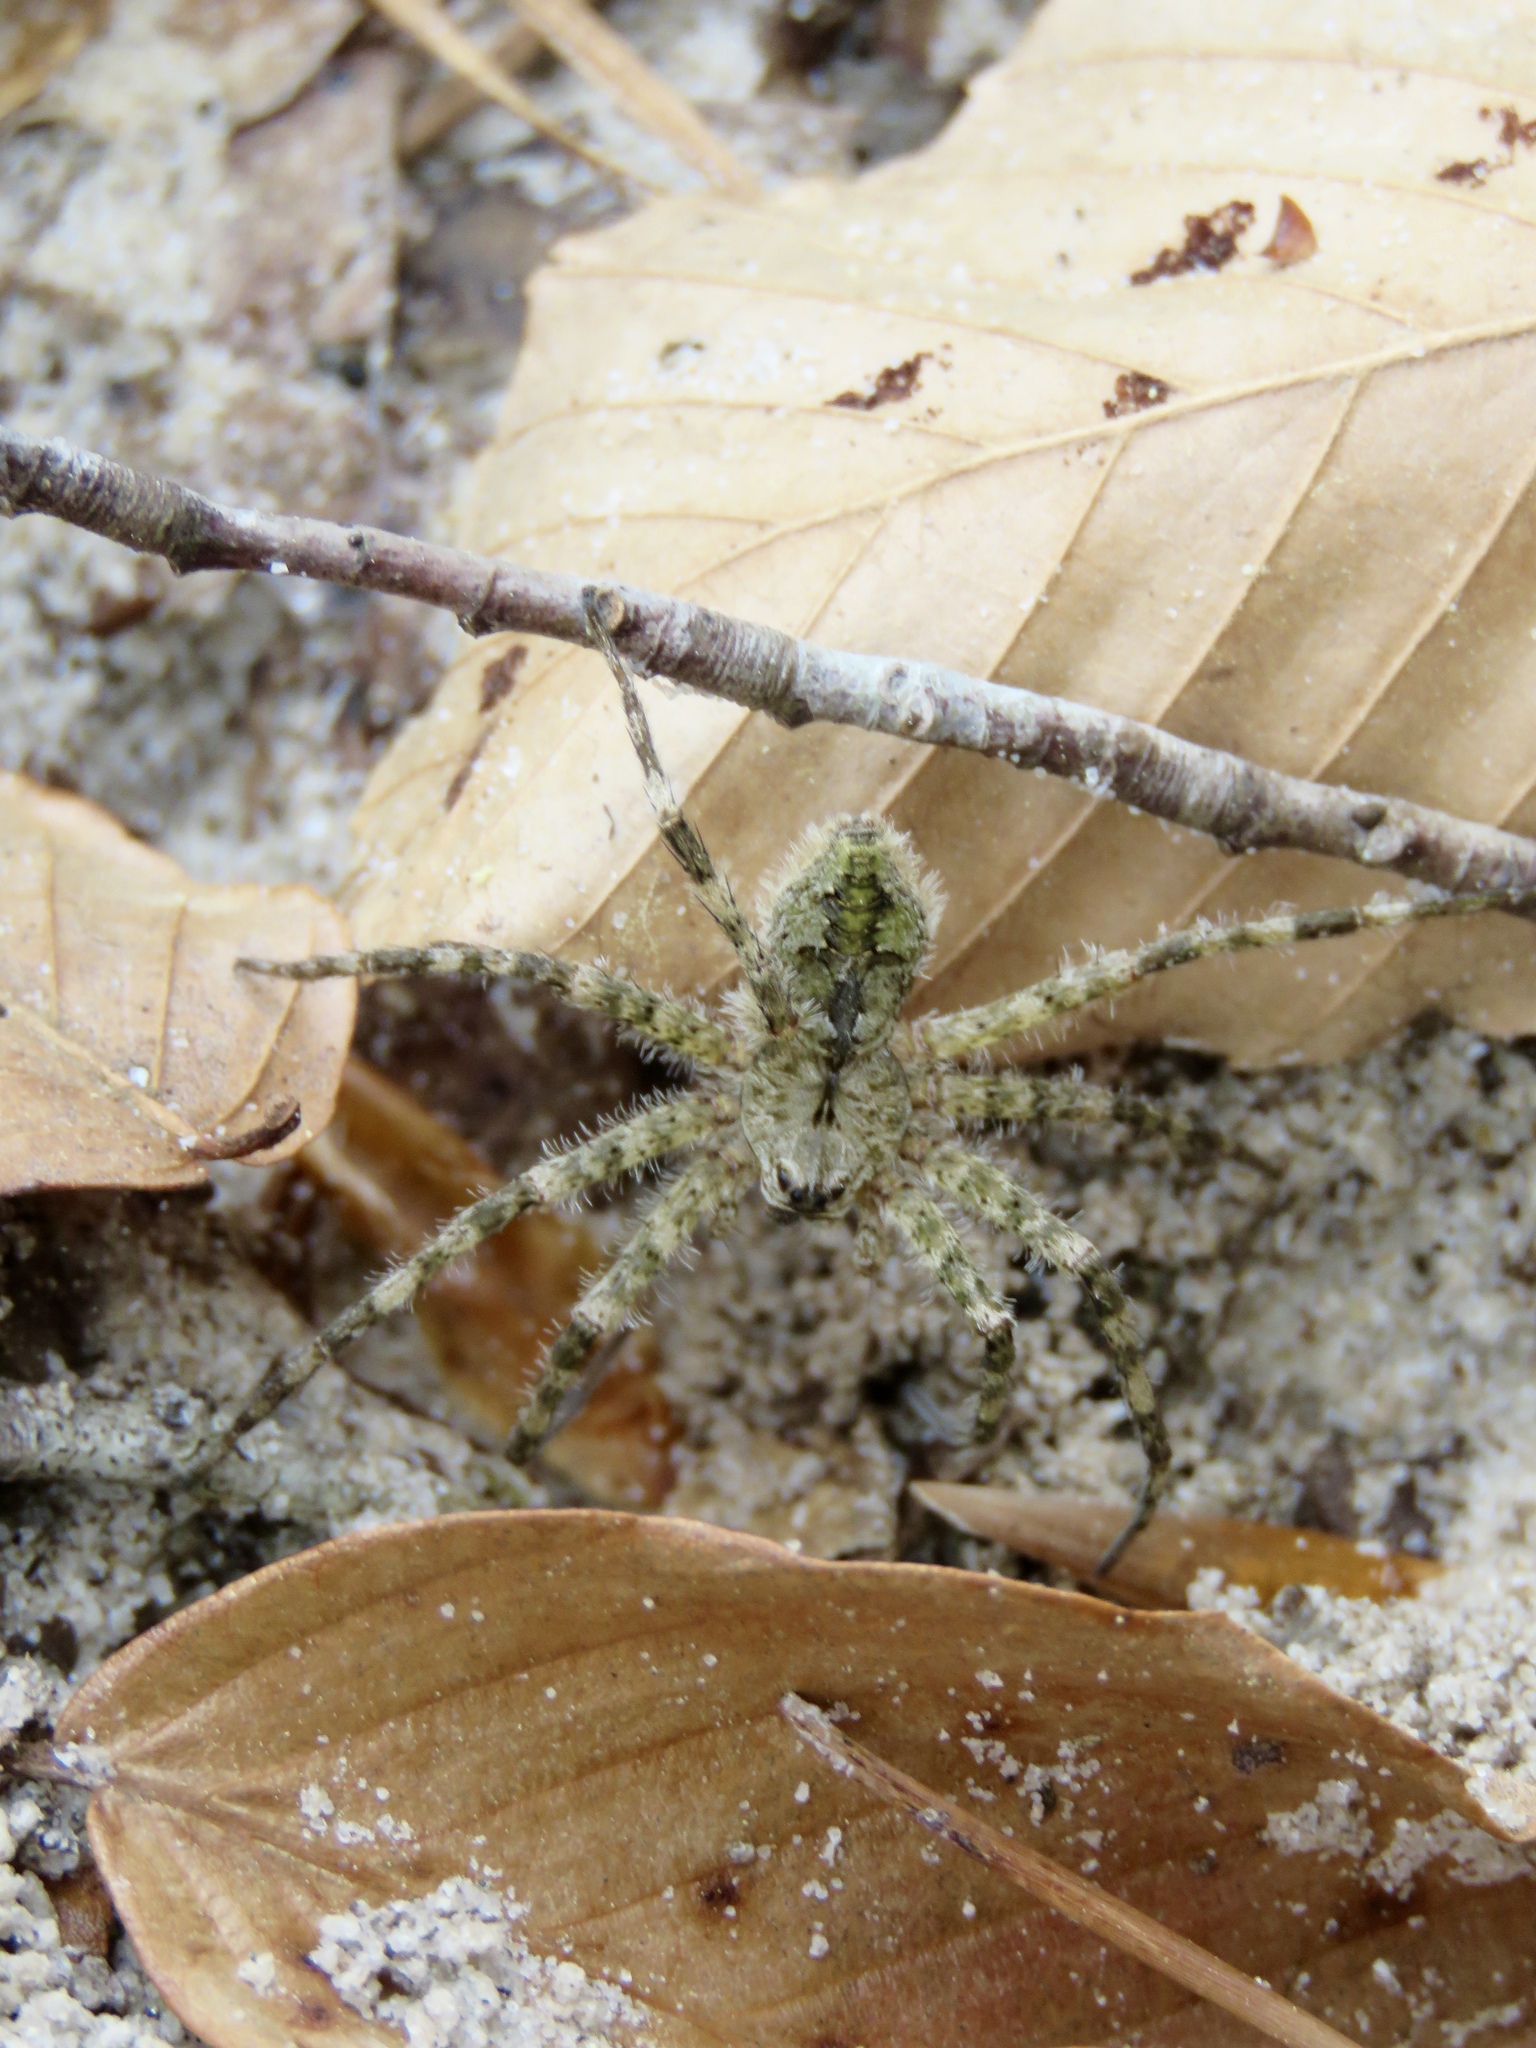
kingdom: Animalia
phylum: Arthropoda
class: Arachnida
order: Araneae
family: Pisauridae
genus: Dolomedes
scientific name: Dolomedes albineus
